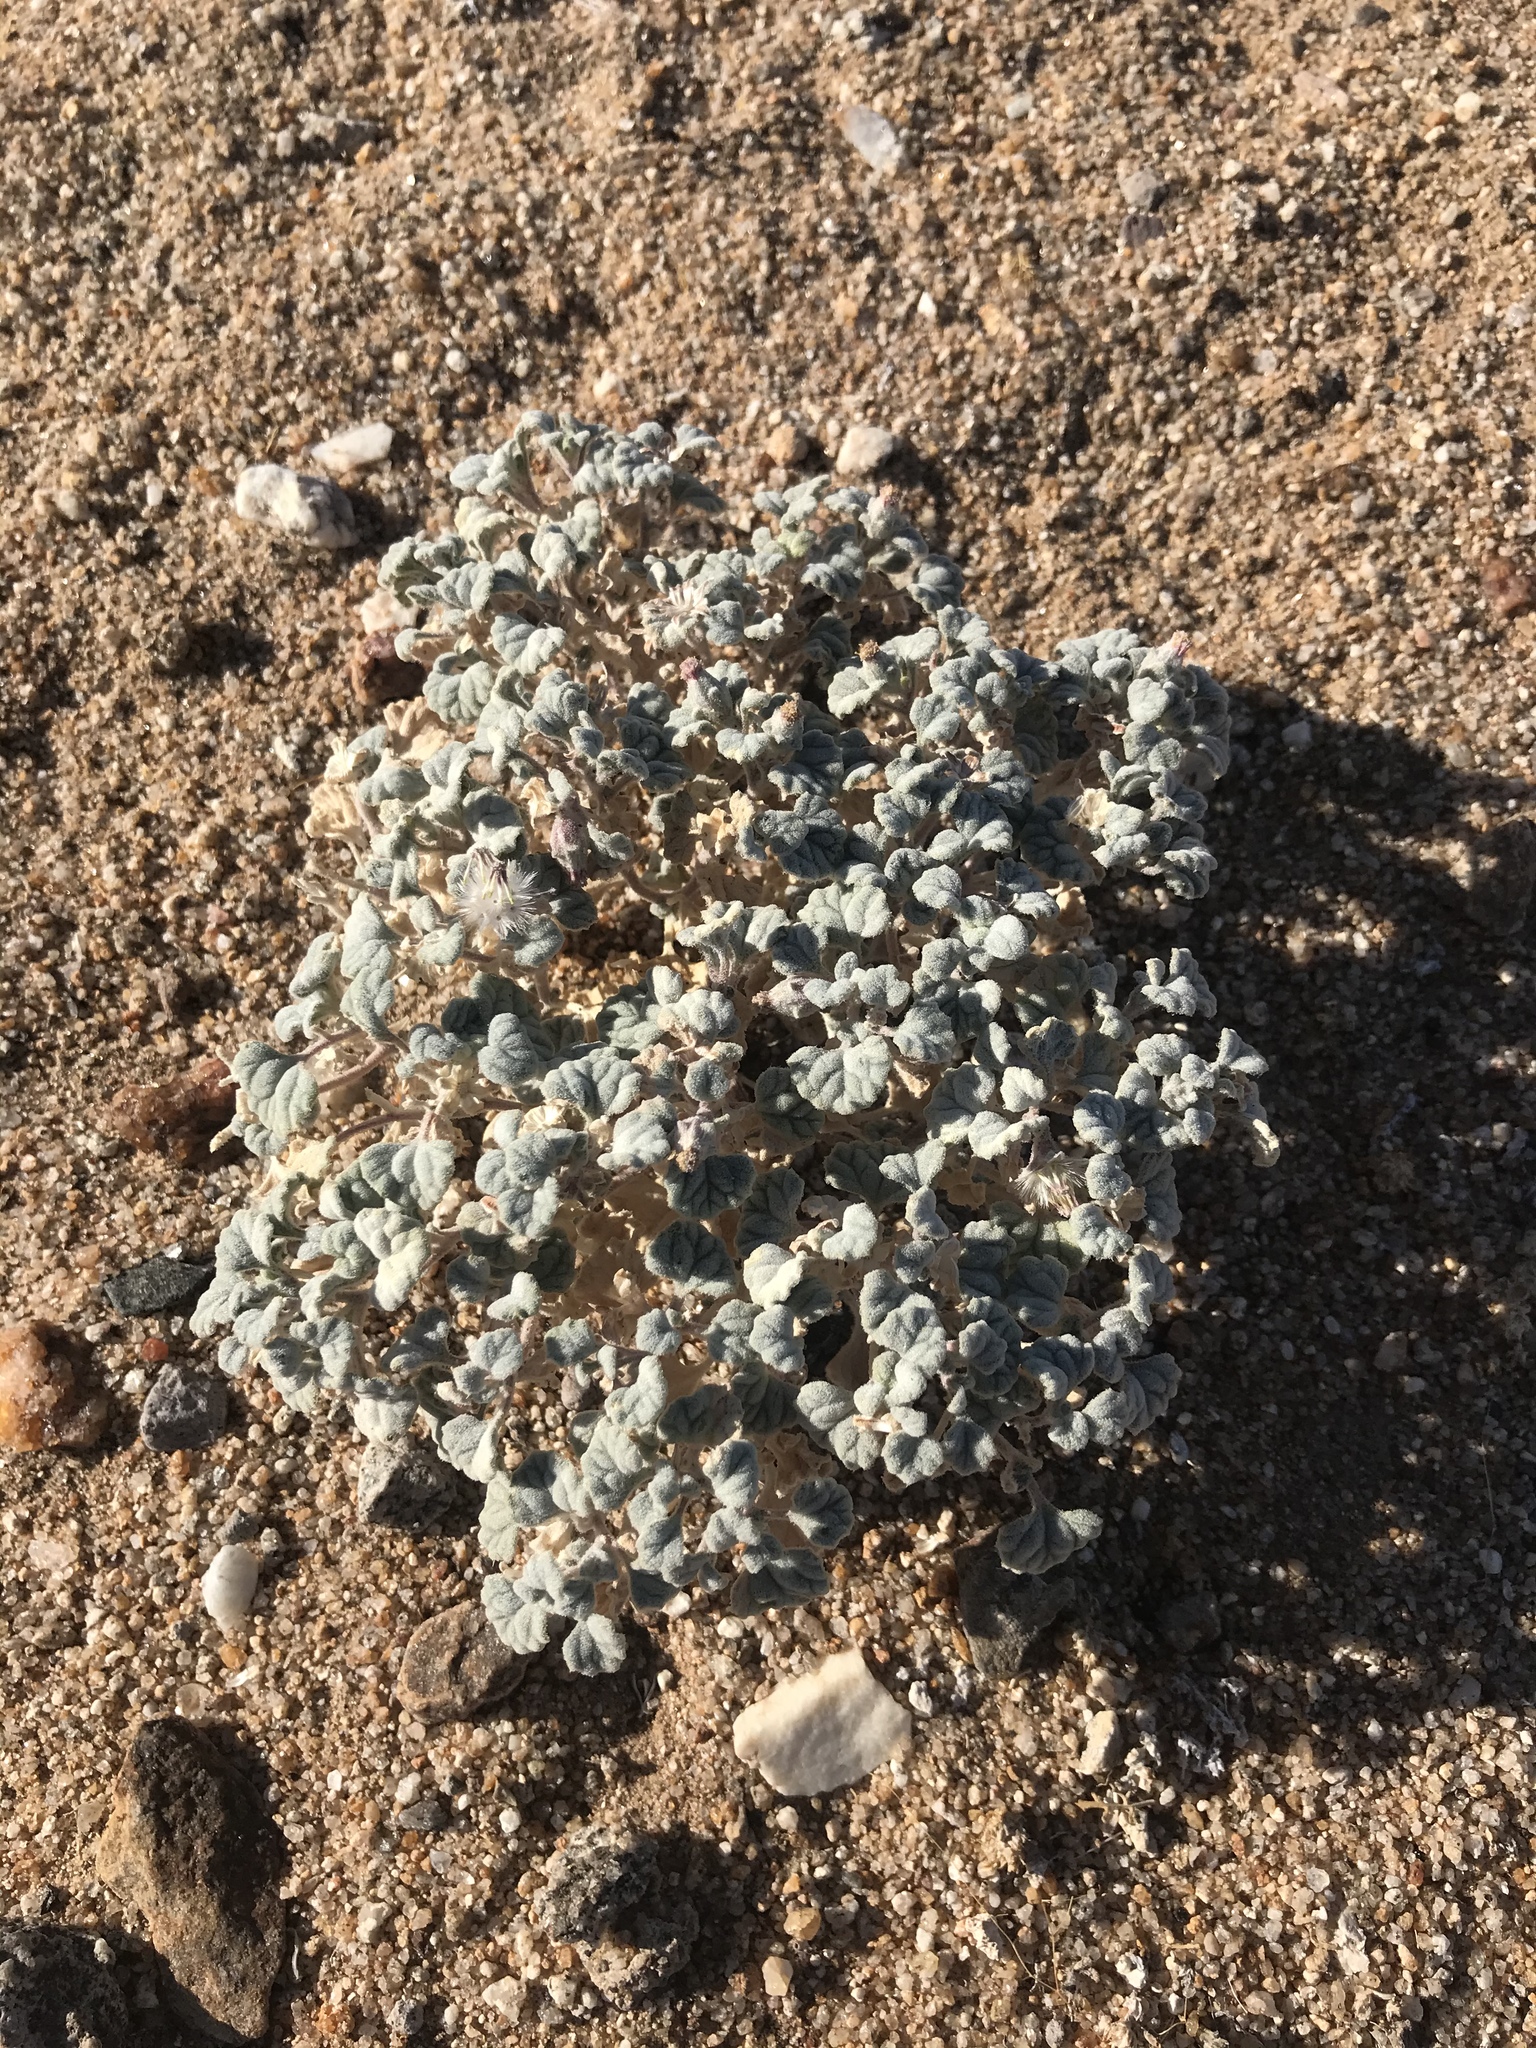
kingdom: Plantae
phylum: Tracheophyta
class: Magnoliopsida
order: Asterales
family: Asteraceae
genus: Psathyrotes
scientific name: Psathyrotes ramosissima
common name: Turtleback
